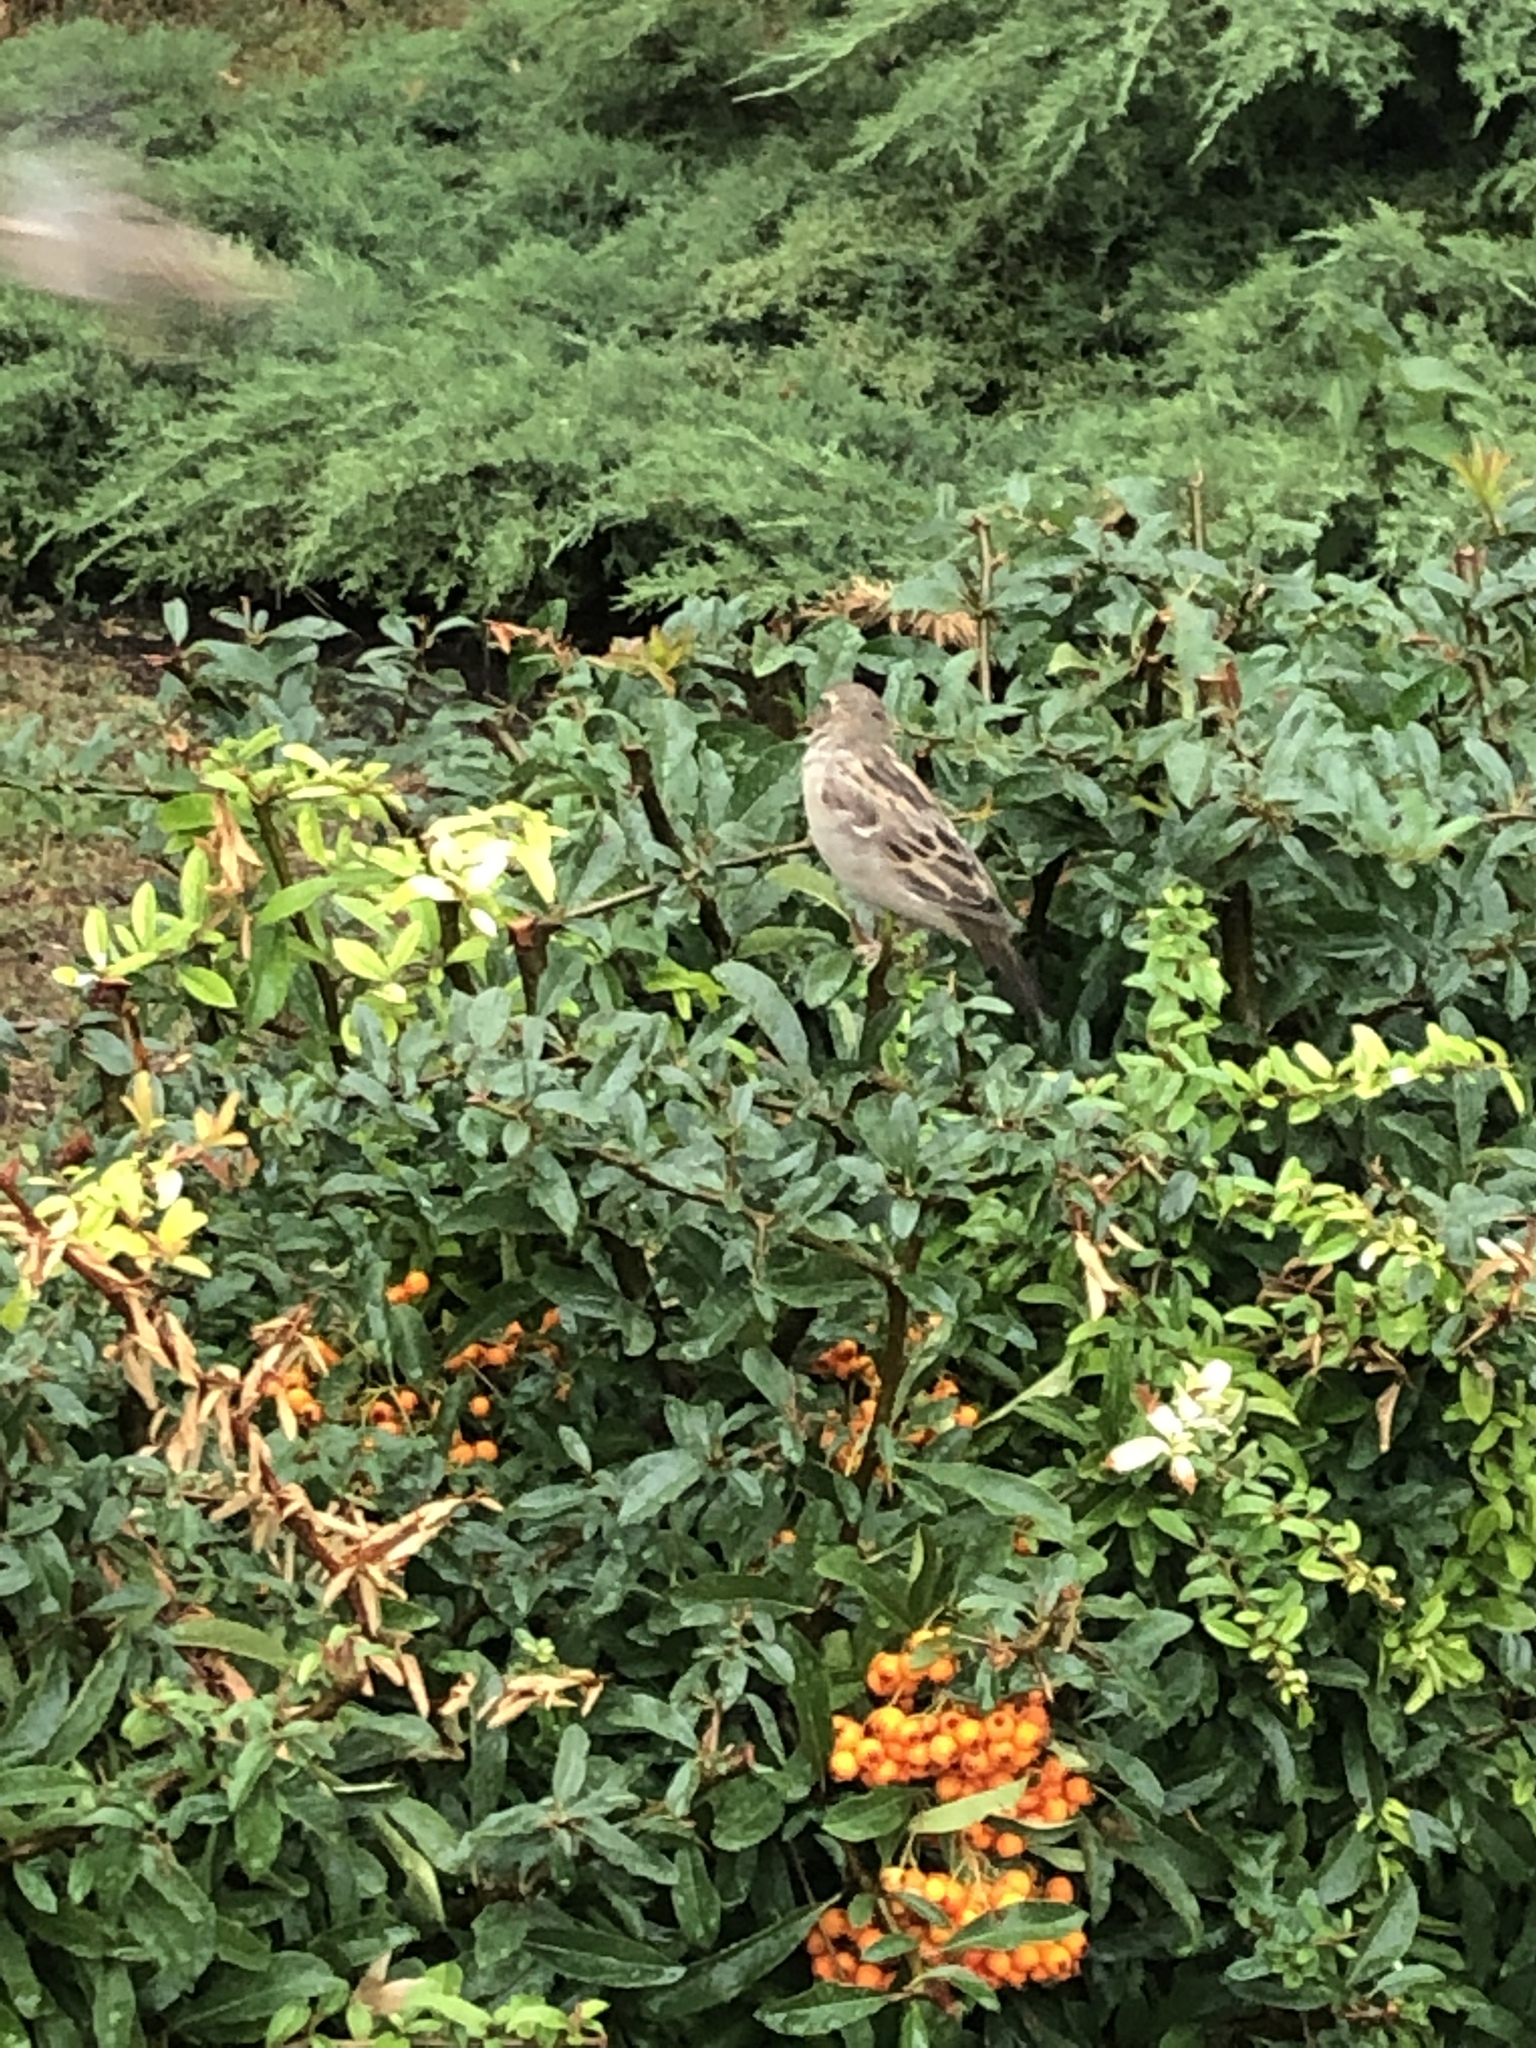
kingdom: Animalia
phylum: Chordata
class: Aves
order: Passeriformes
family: Passeridae
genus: Passer
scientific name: Passer domesticus
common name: House sparrow
